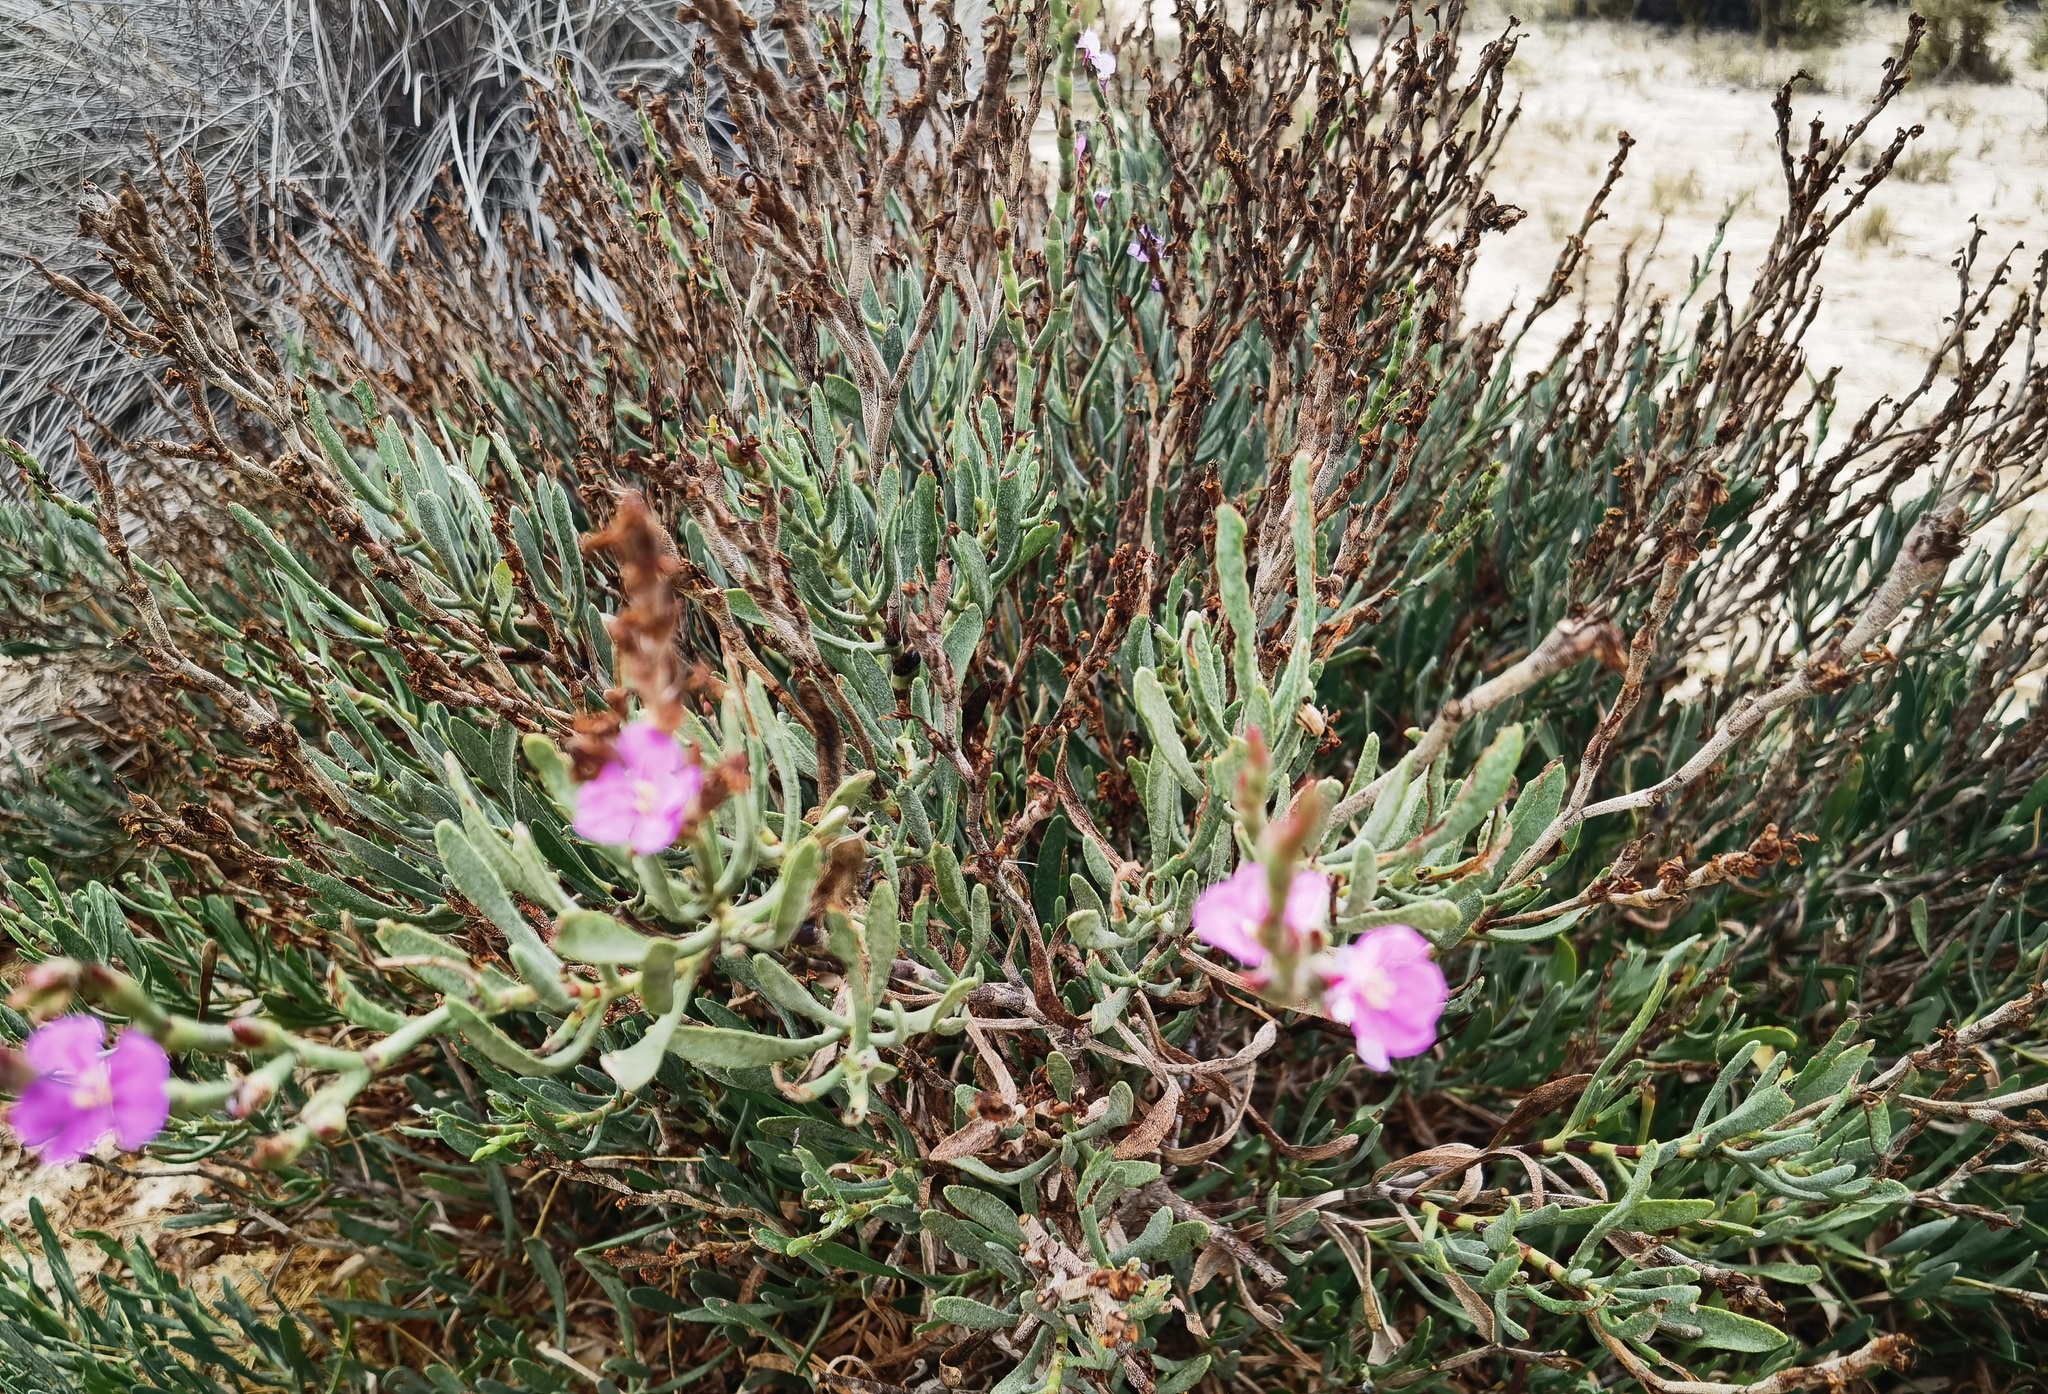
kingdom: Plantae
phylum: Tracheophyta
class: Magnoliopsida
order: Caryophyllales
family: Plumbaginaceae
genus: Limoniastrum
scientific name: Limoniastrum monopetalum
